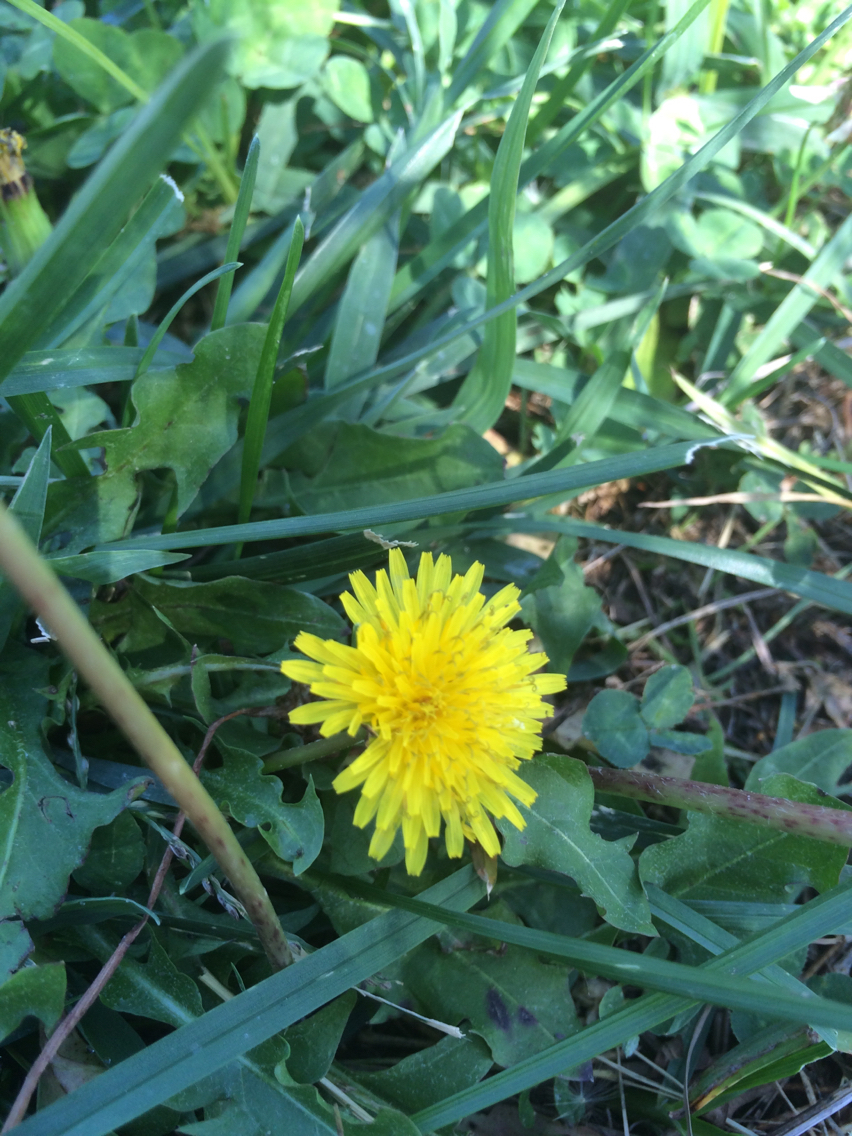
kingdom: Plantae
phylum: Tracheophyta
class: Magnoliopsida
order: Asterales
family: Asteraceae
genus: Taraxacum
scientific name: Taraxacum officinale
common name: Common dandelion
